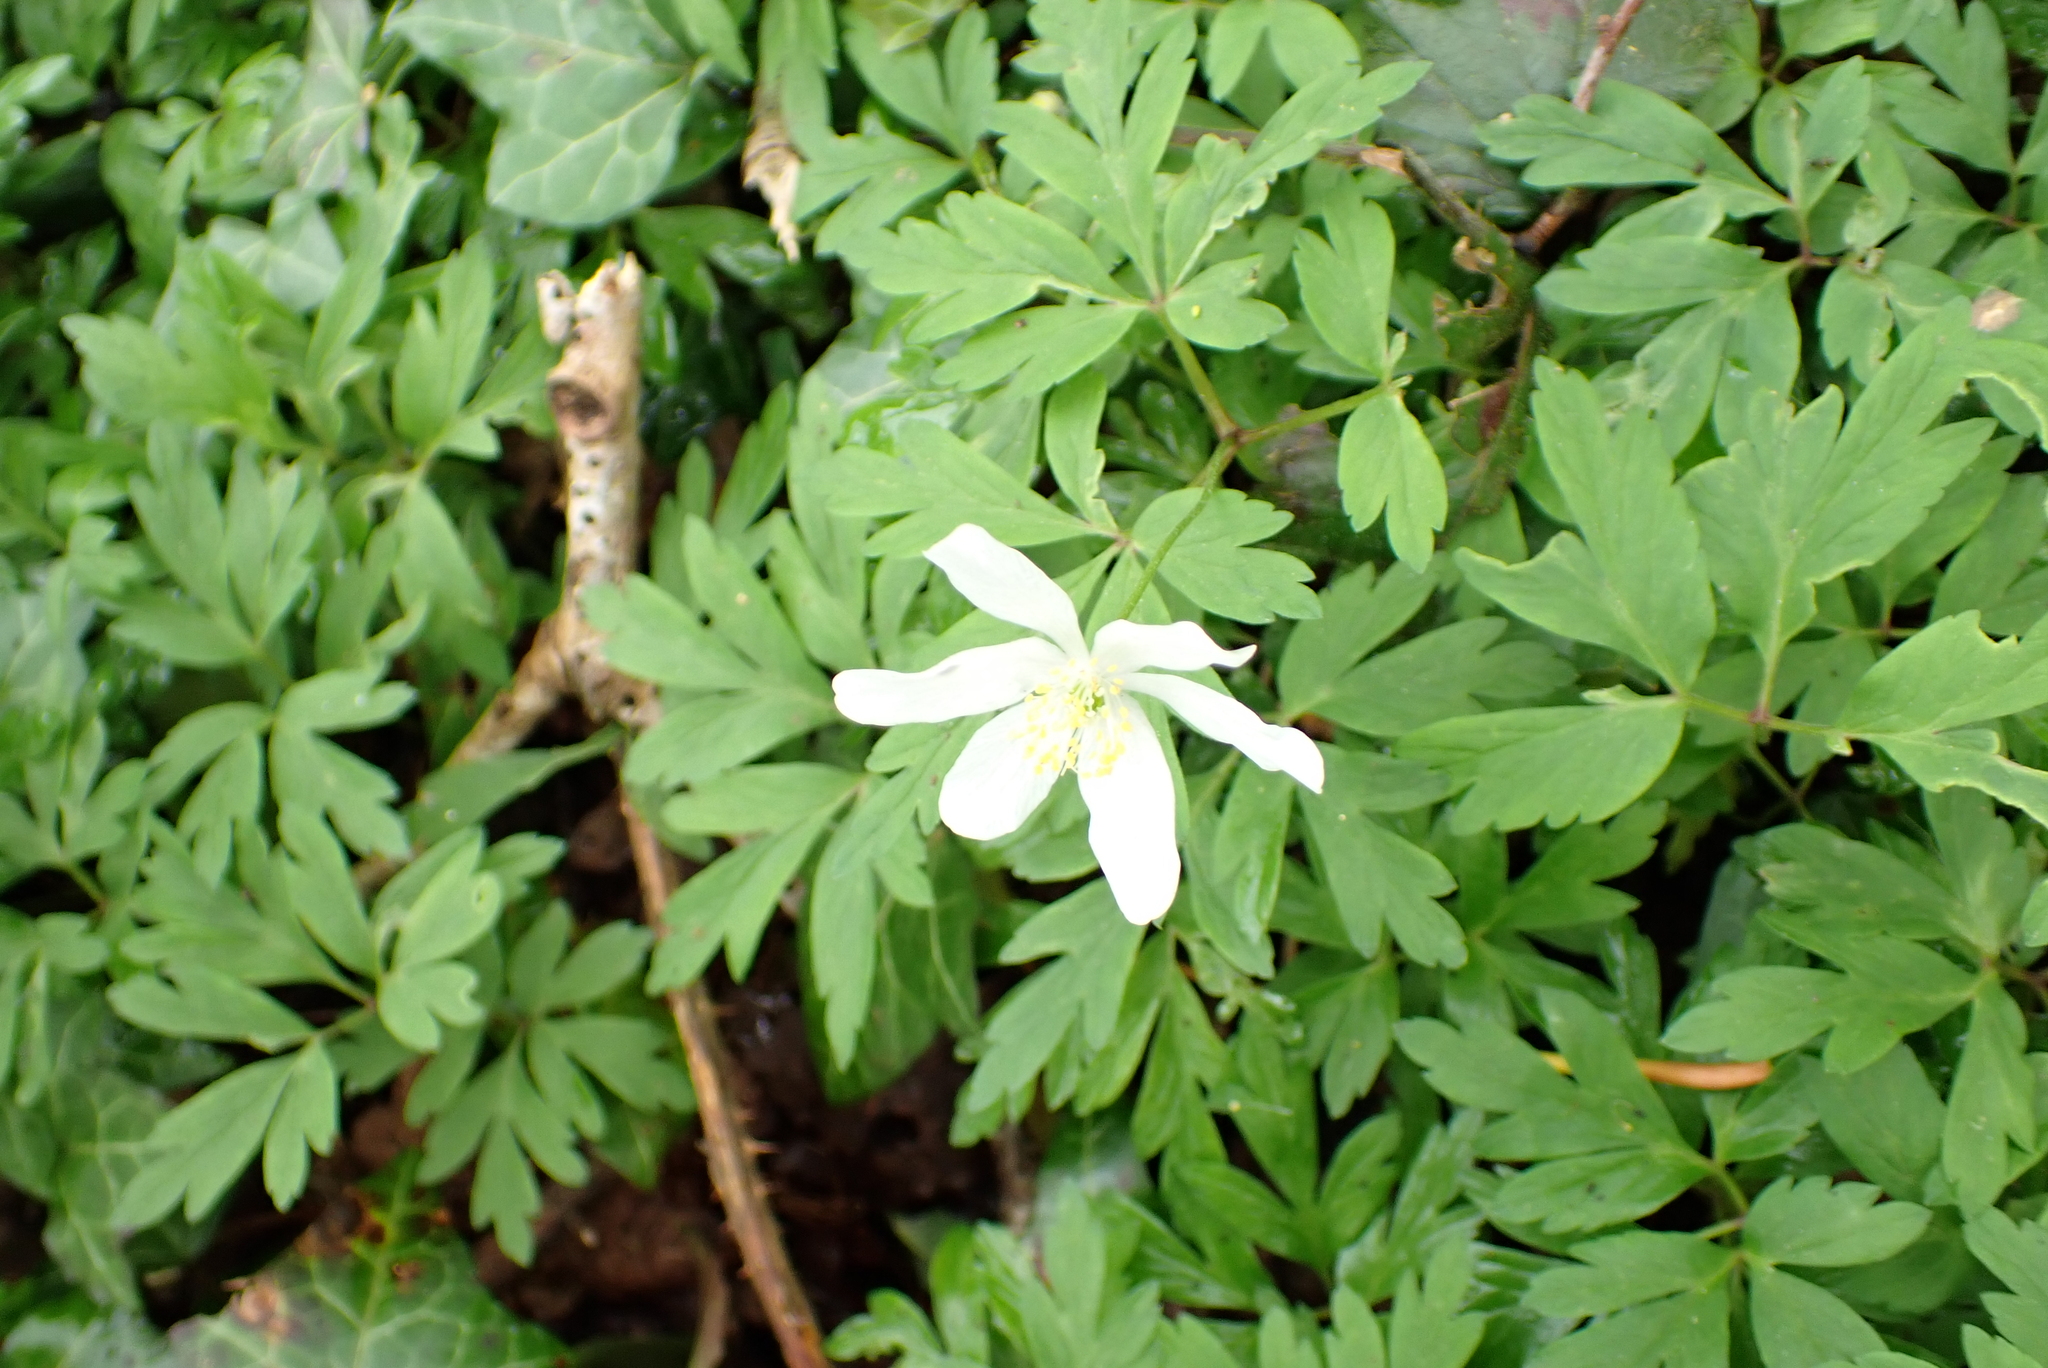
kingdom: Plantae
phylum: Tracheophyta
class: Magnoliopsida
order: Ranunculales
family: Ranunculaceae
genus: Anemone
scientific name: Anemone nemorosa
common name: Wood anemone
